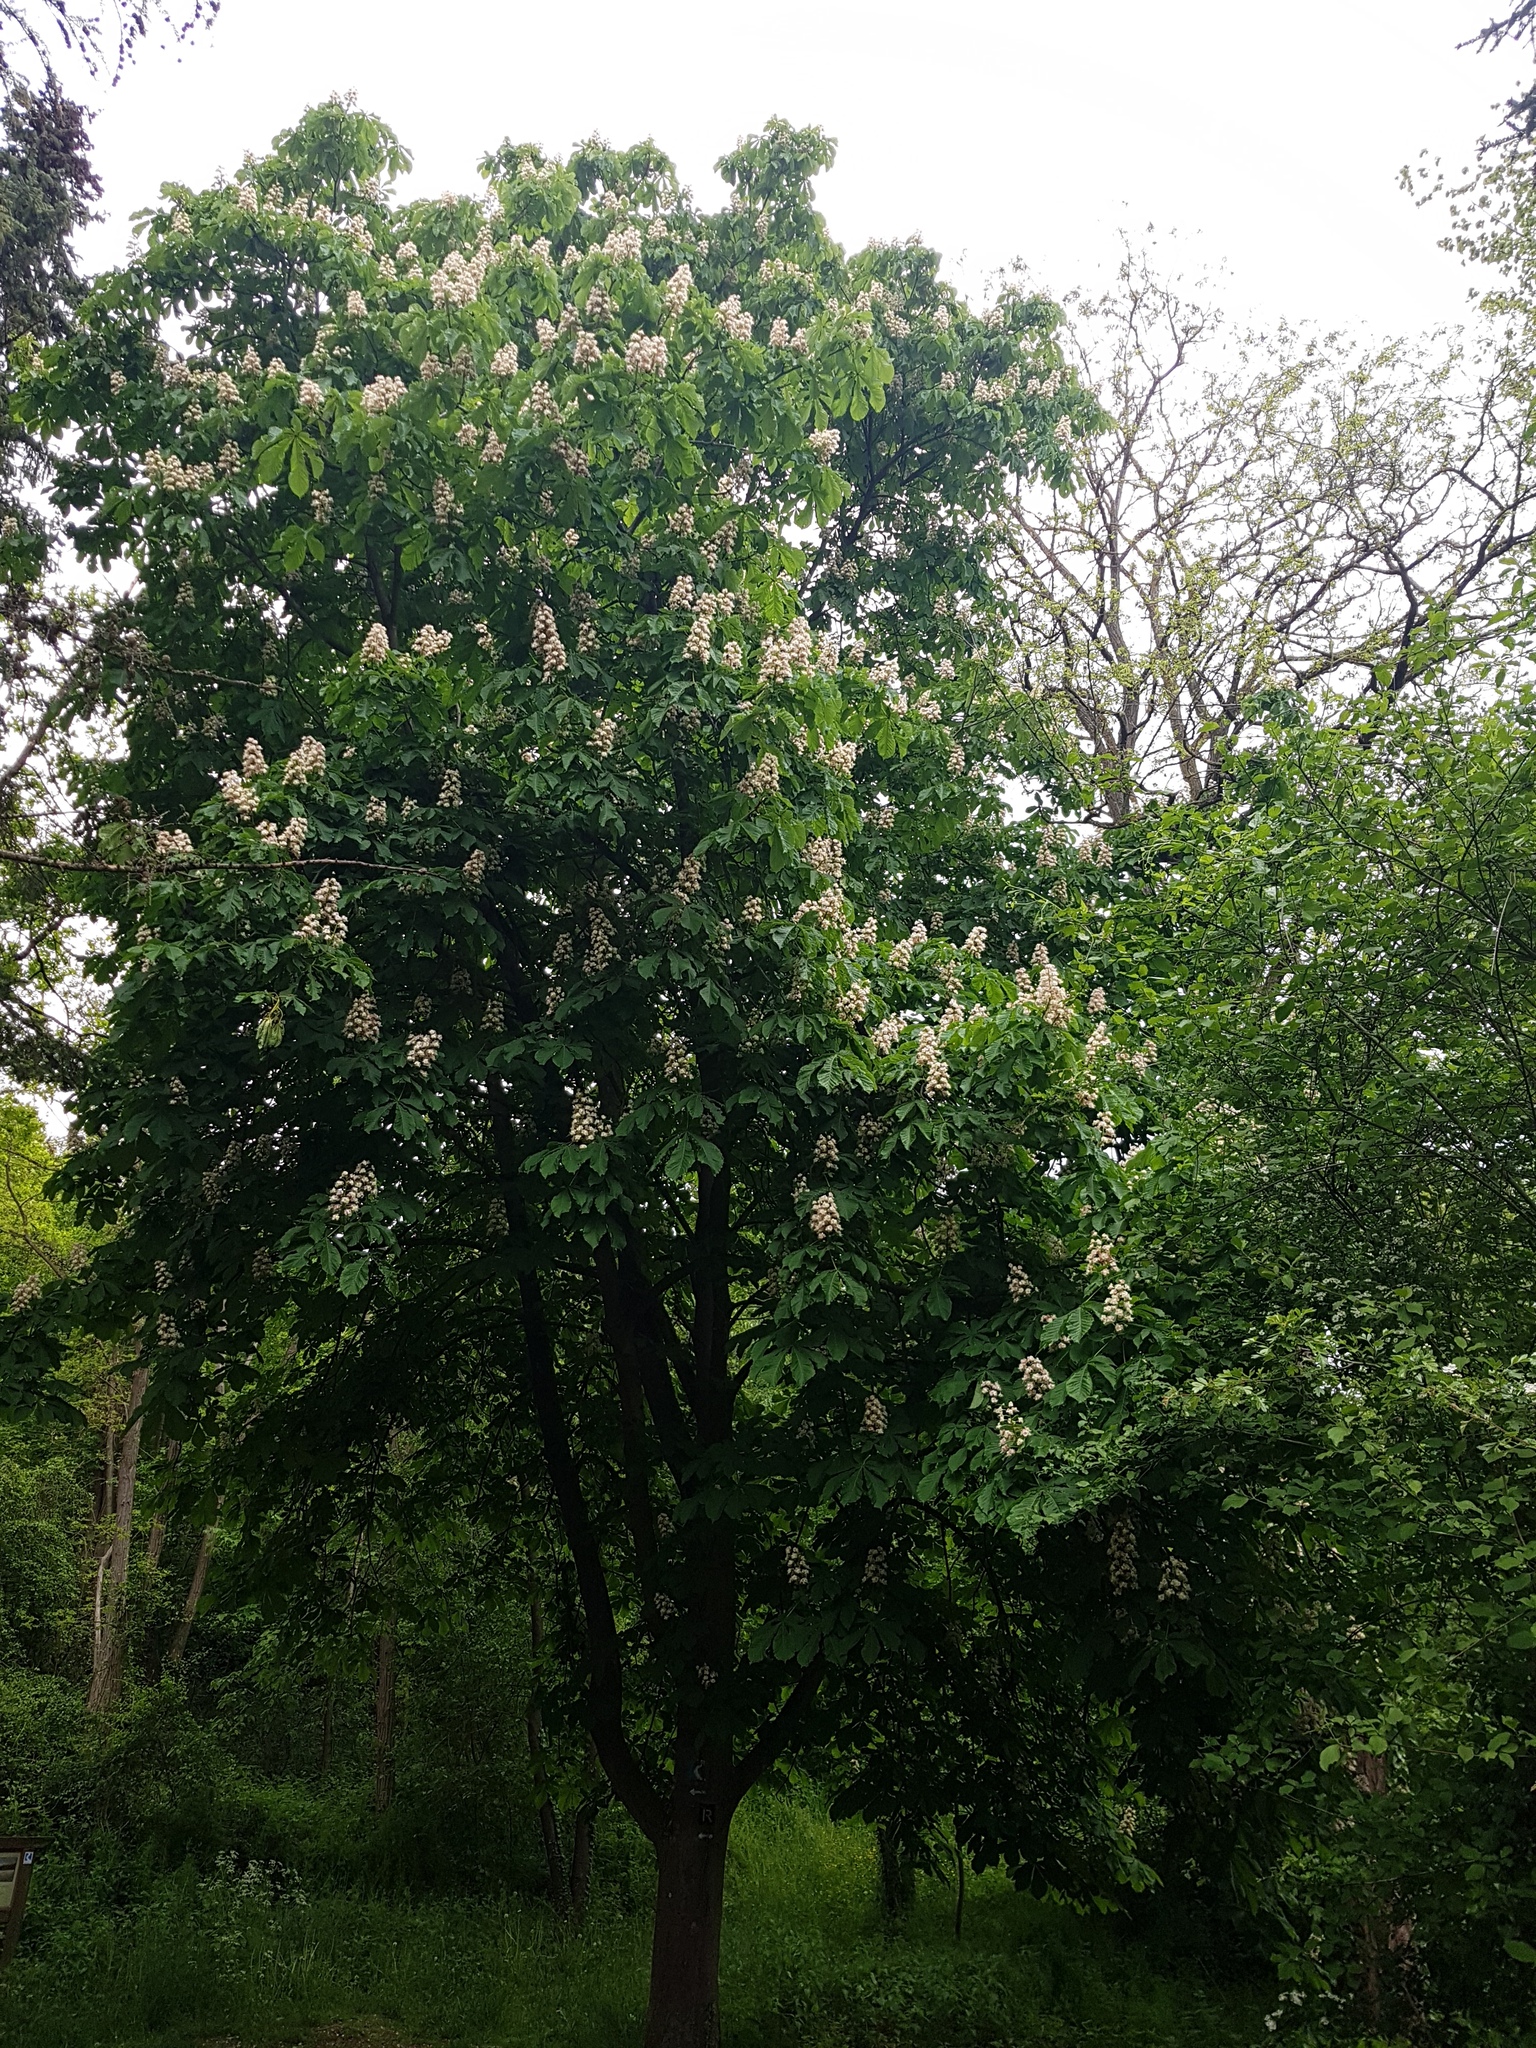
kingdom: Plantae
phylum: Tracheophyta
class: Magnoliopsida
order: Sapindales
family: Sapindaceae
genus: Aesculus
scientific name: Aesculus hippocastanum
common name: Horse-chestnut
